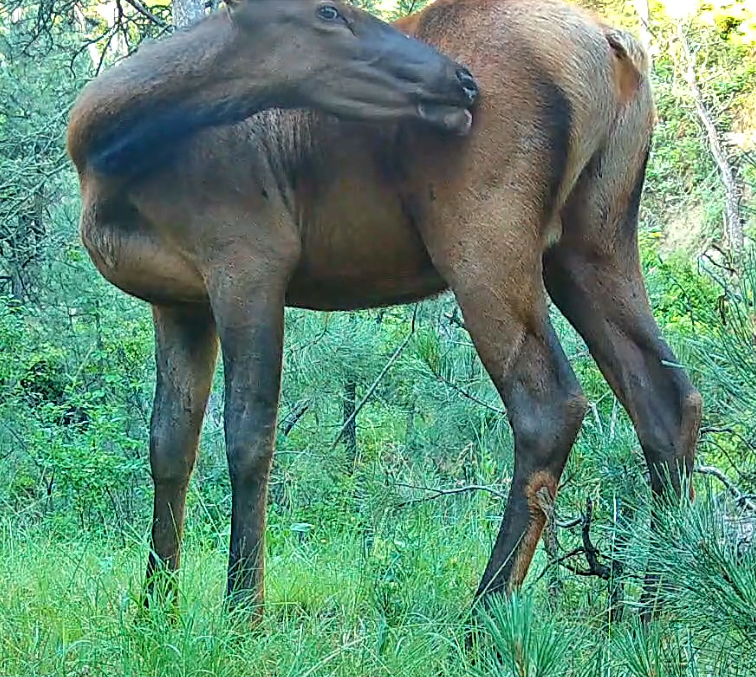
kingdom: Animalia
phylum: Chordata
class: Mammalia
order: Artiodactyla
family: Cervidae
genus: Cervus
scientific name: Cervus elaphus
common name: Red deer
